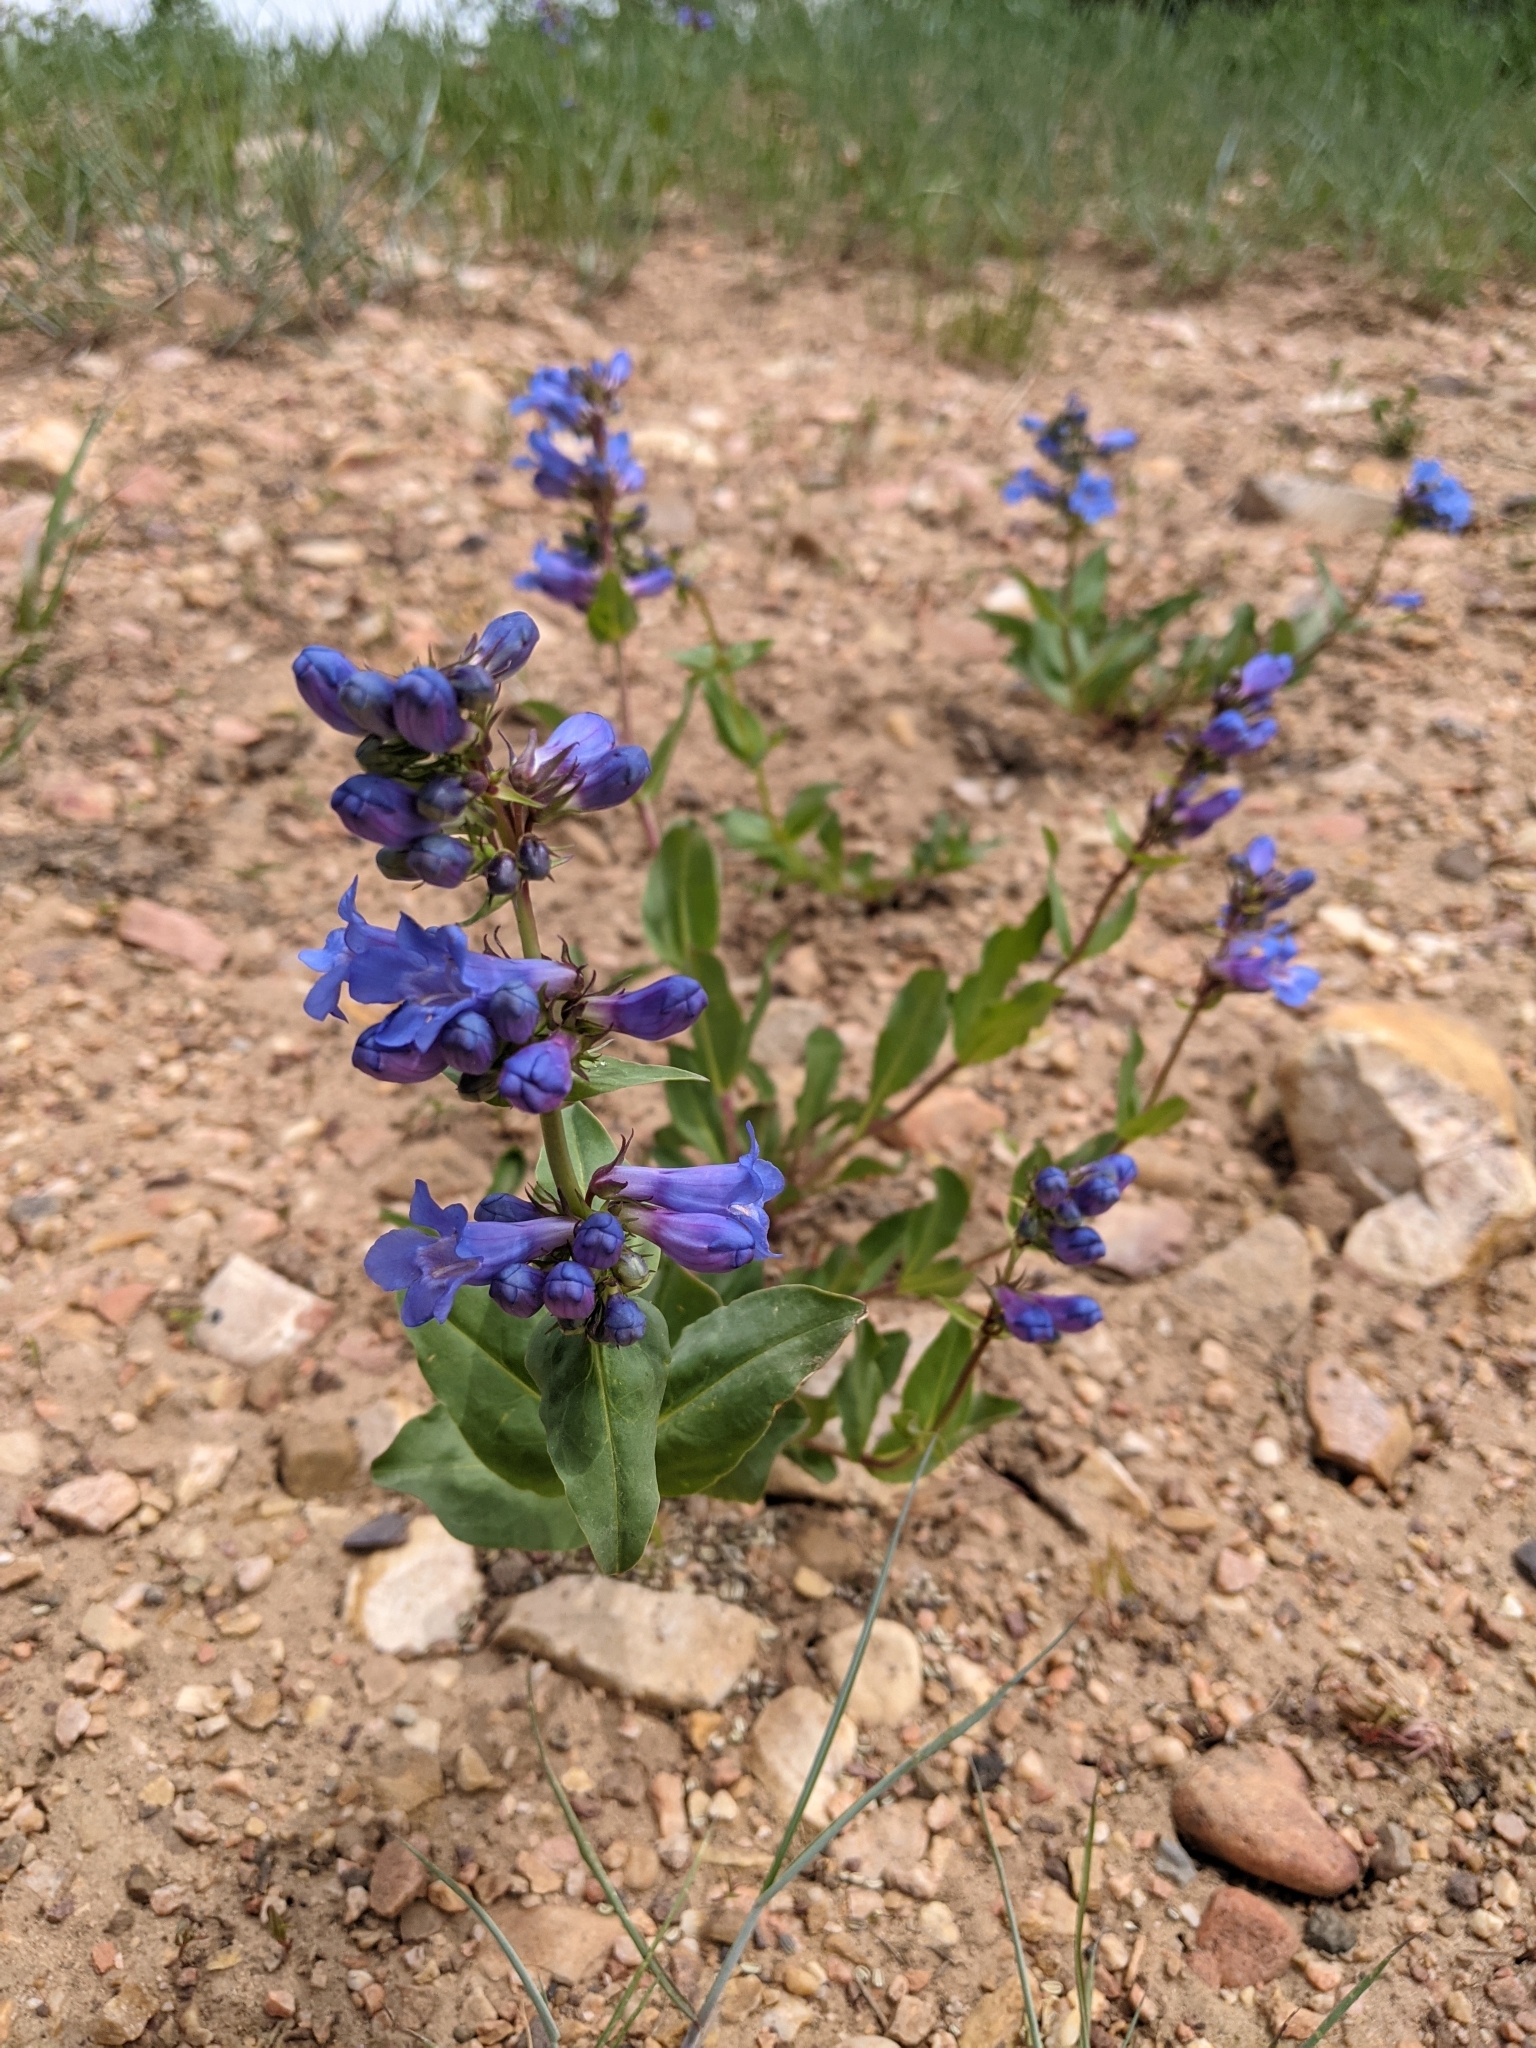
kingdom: Plantae
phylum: Tracheophyta
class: Magnoliopsida
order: Lamiales
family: Plantaginaceae
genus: Penstemon
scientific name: Penstemon cyananthus
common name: Wasatch penstemon
